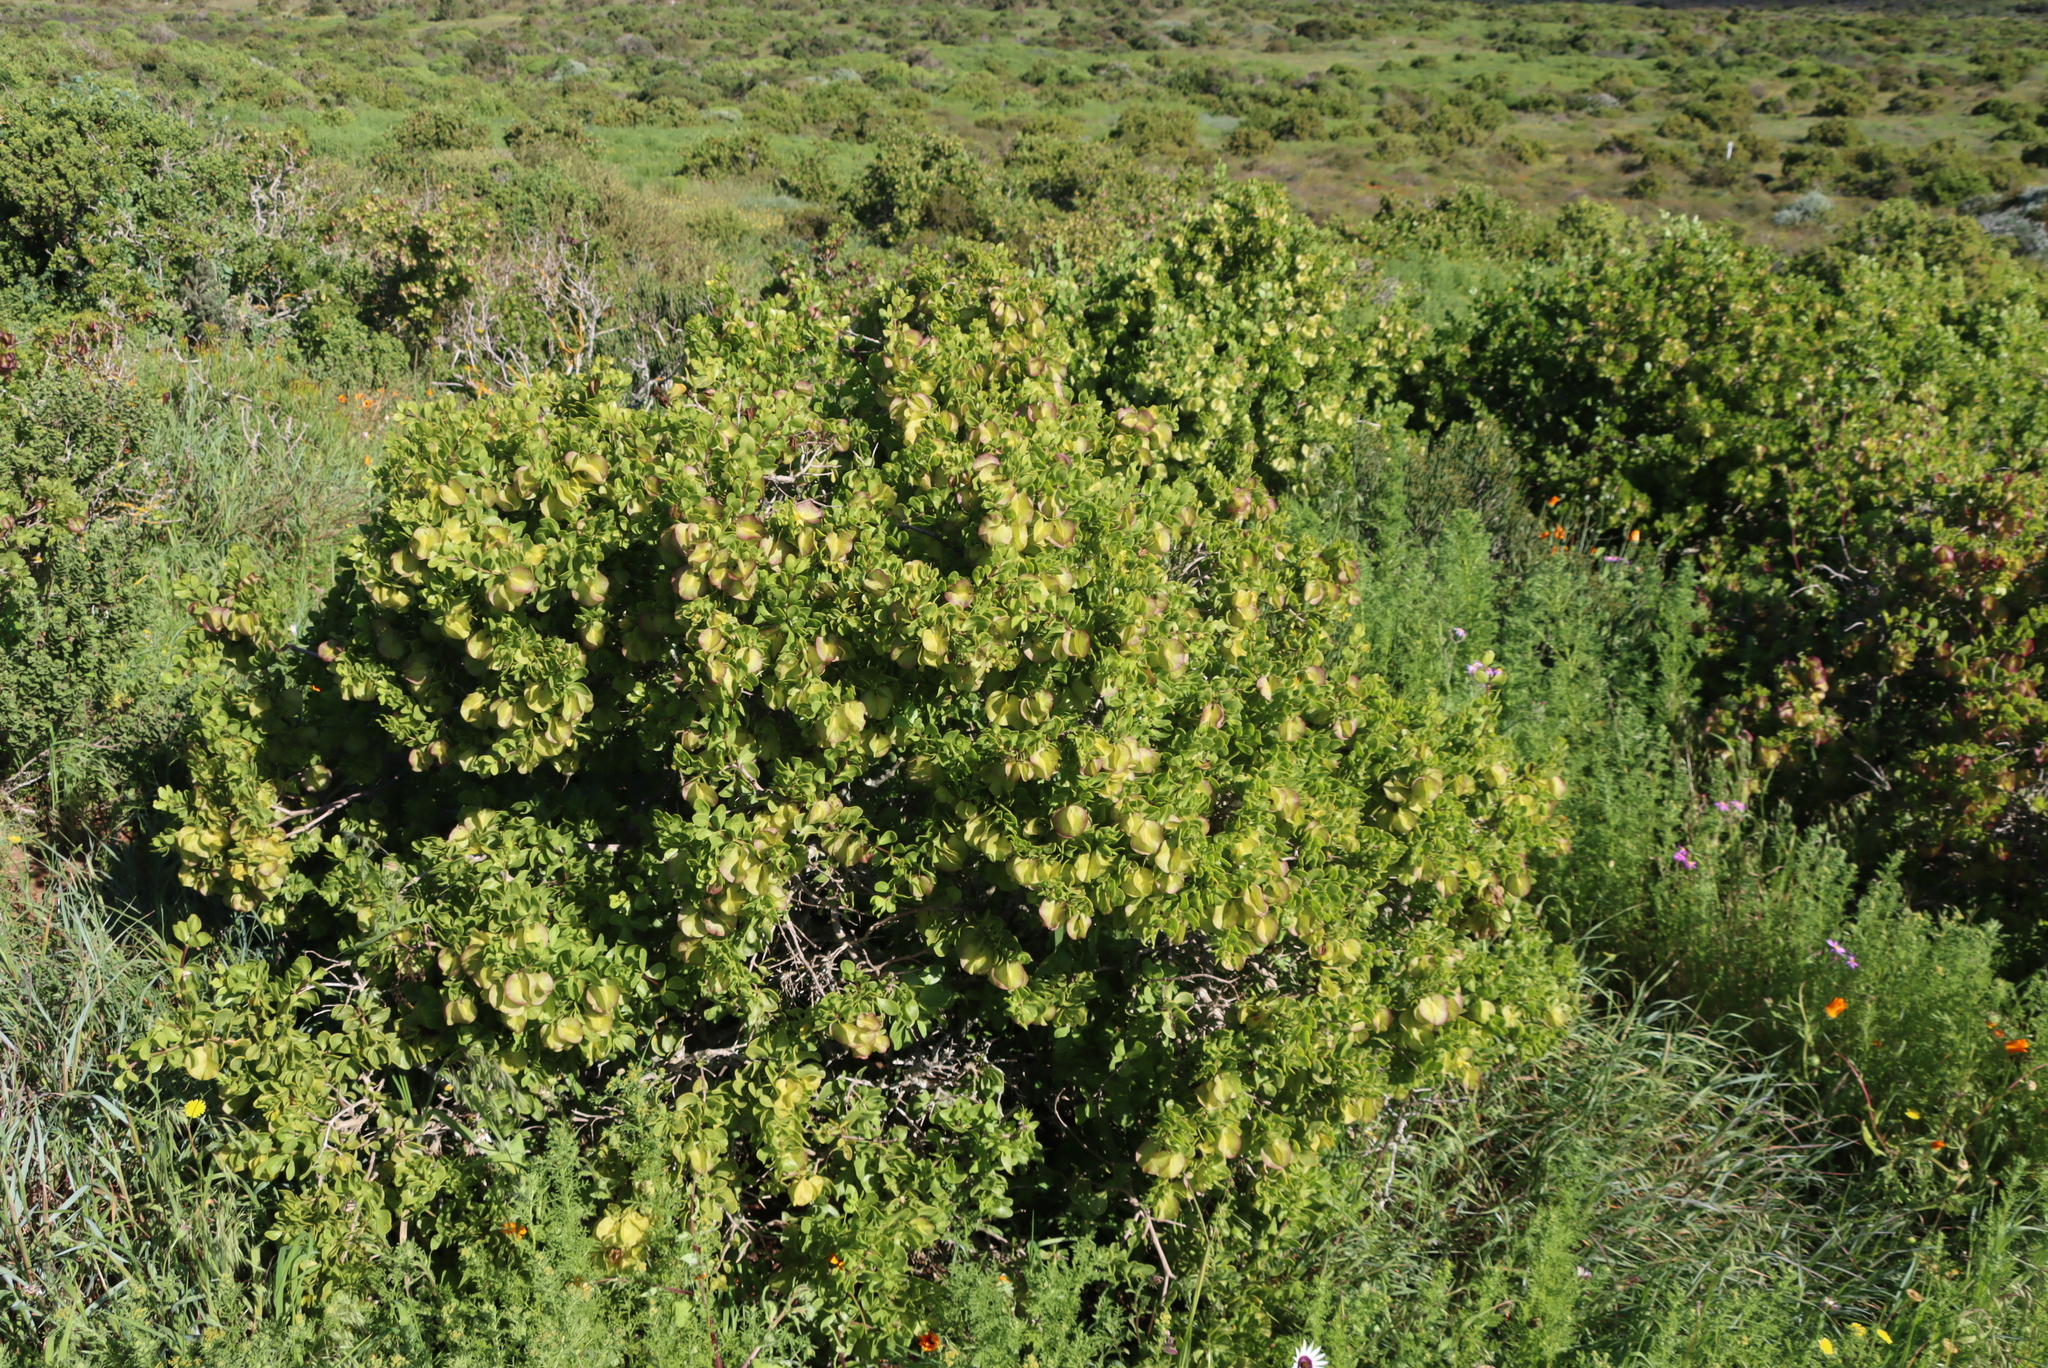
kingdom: Plantae
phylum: Tracheophyta
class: Magnoliopsida
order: Zygophyllales
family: Zygophyllaceae
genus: Roepera
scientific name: Roepera morgsana
